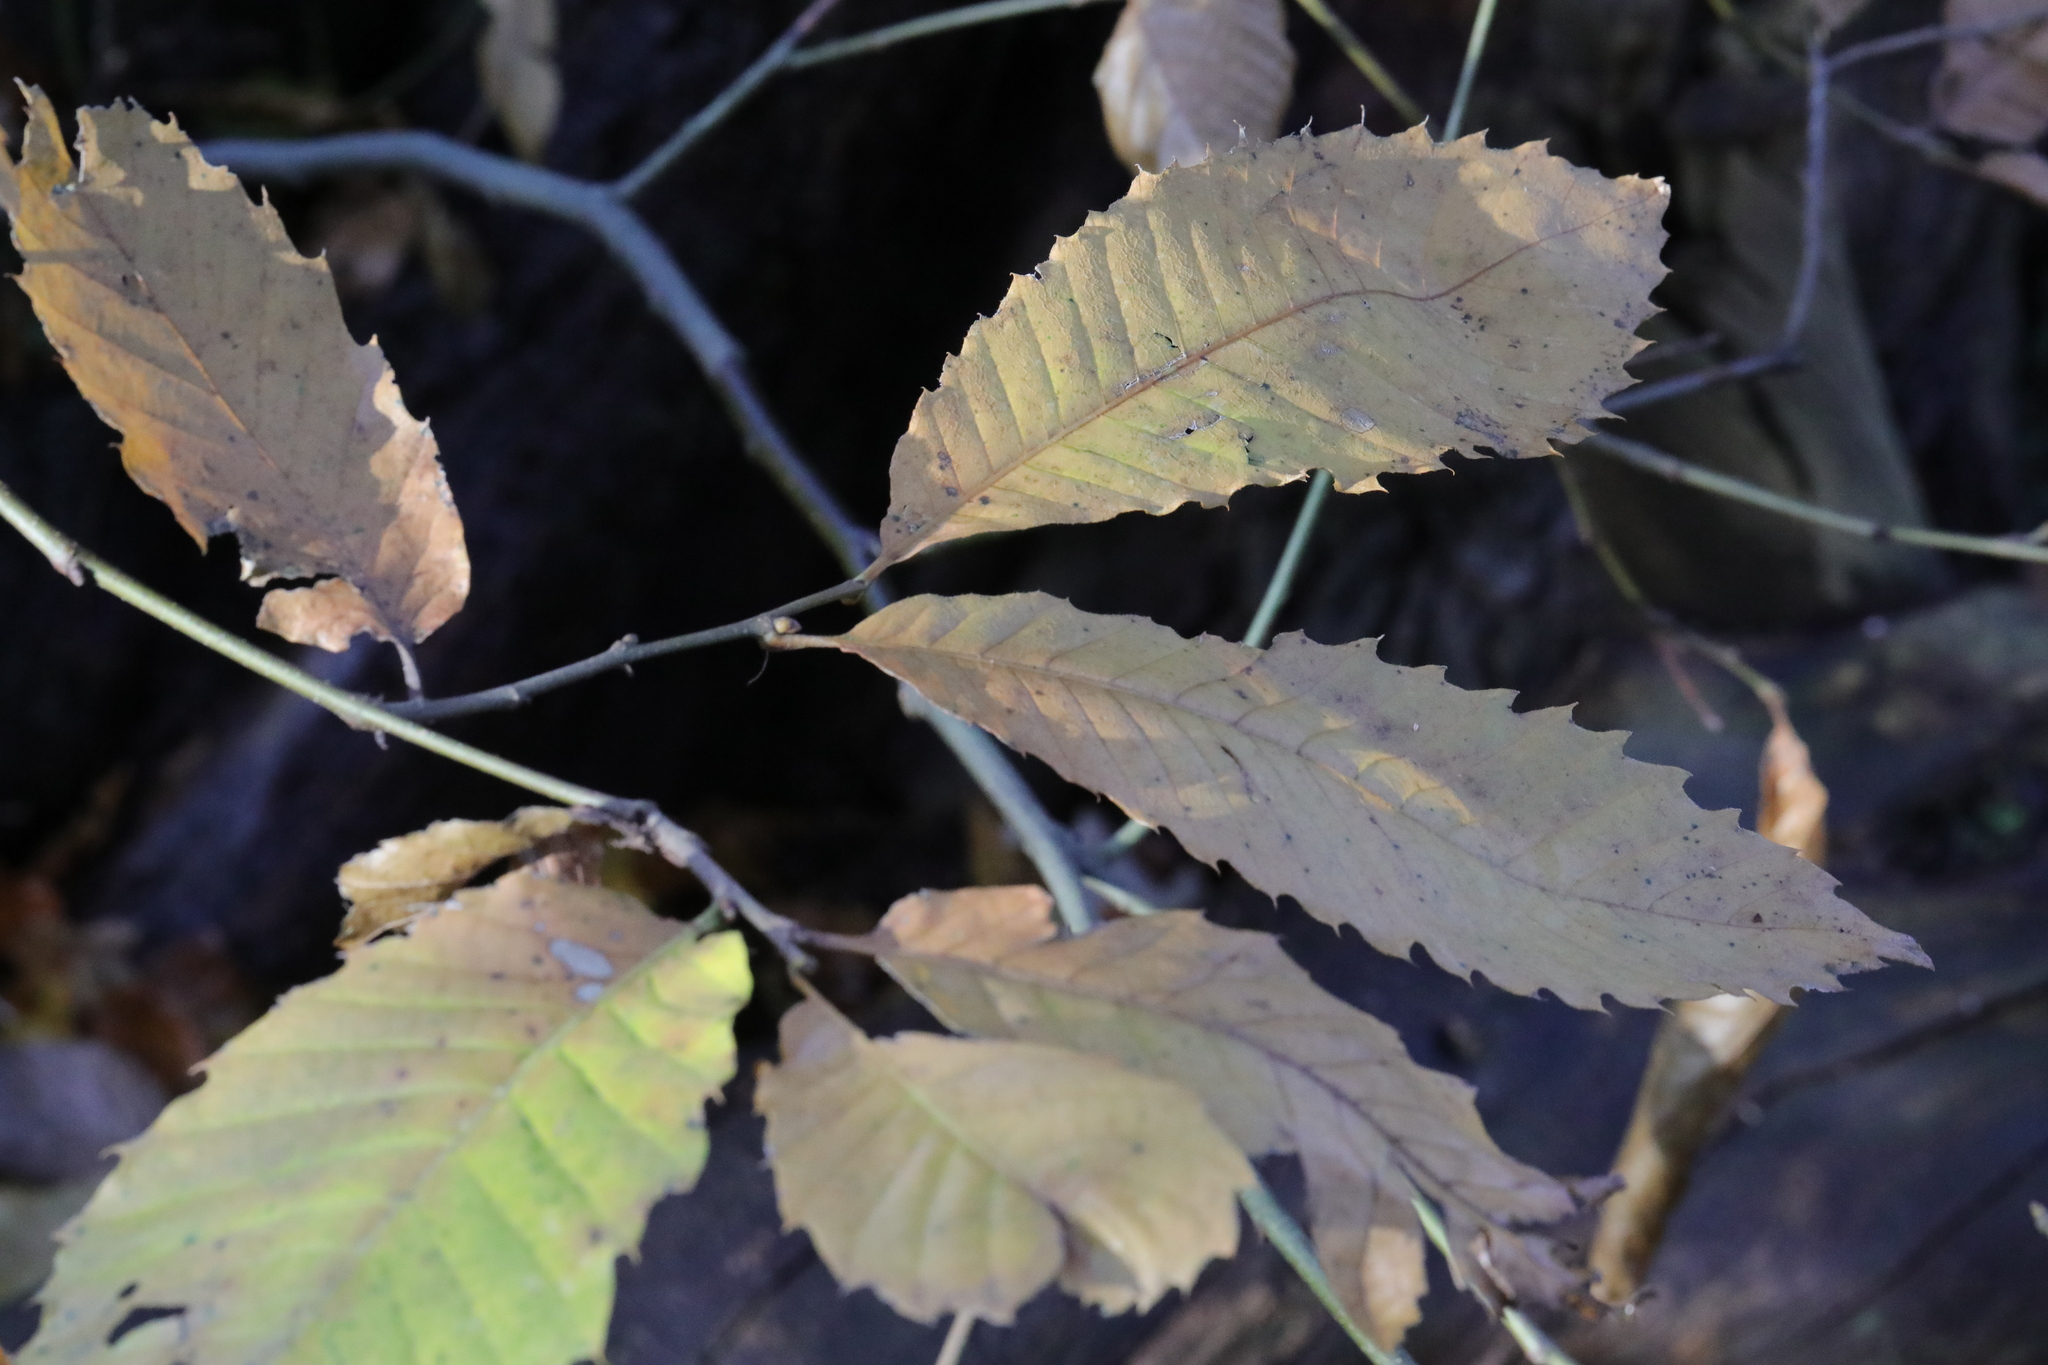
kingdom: Plantae
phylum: Tracheophyta
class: Magnoliopsida
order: Fagales
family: Fagaceae
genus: Castanea
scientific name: Castanea sativa
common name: Sweet chestnut
